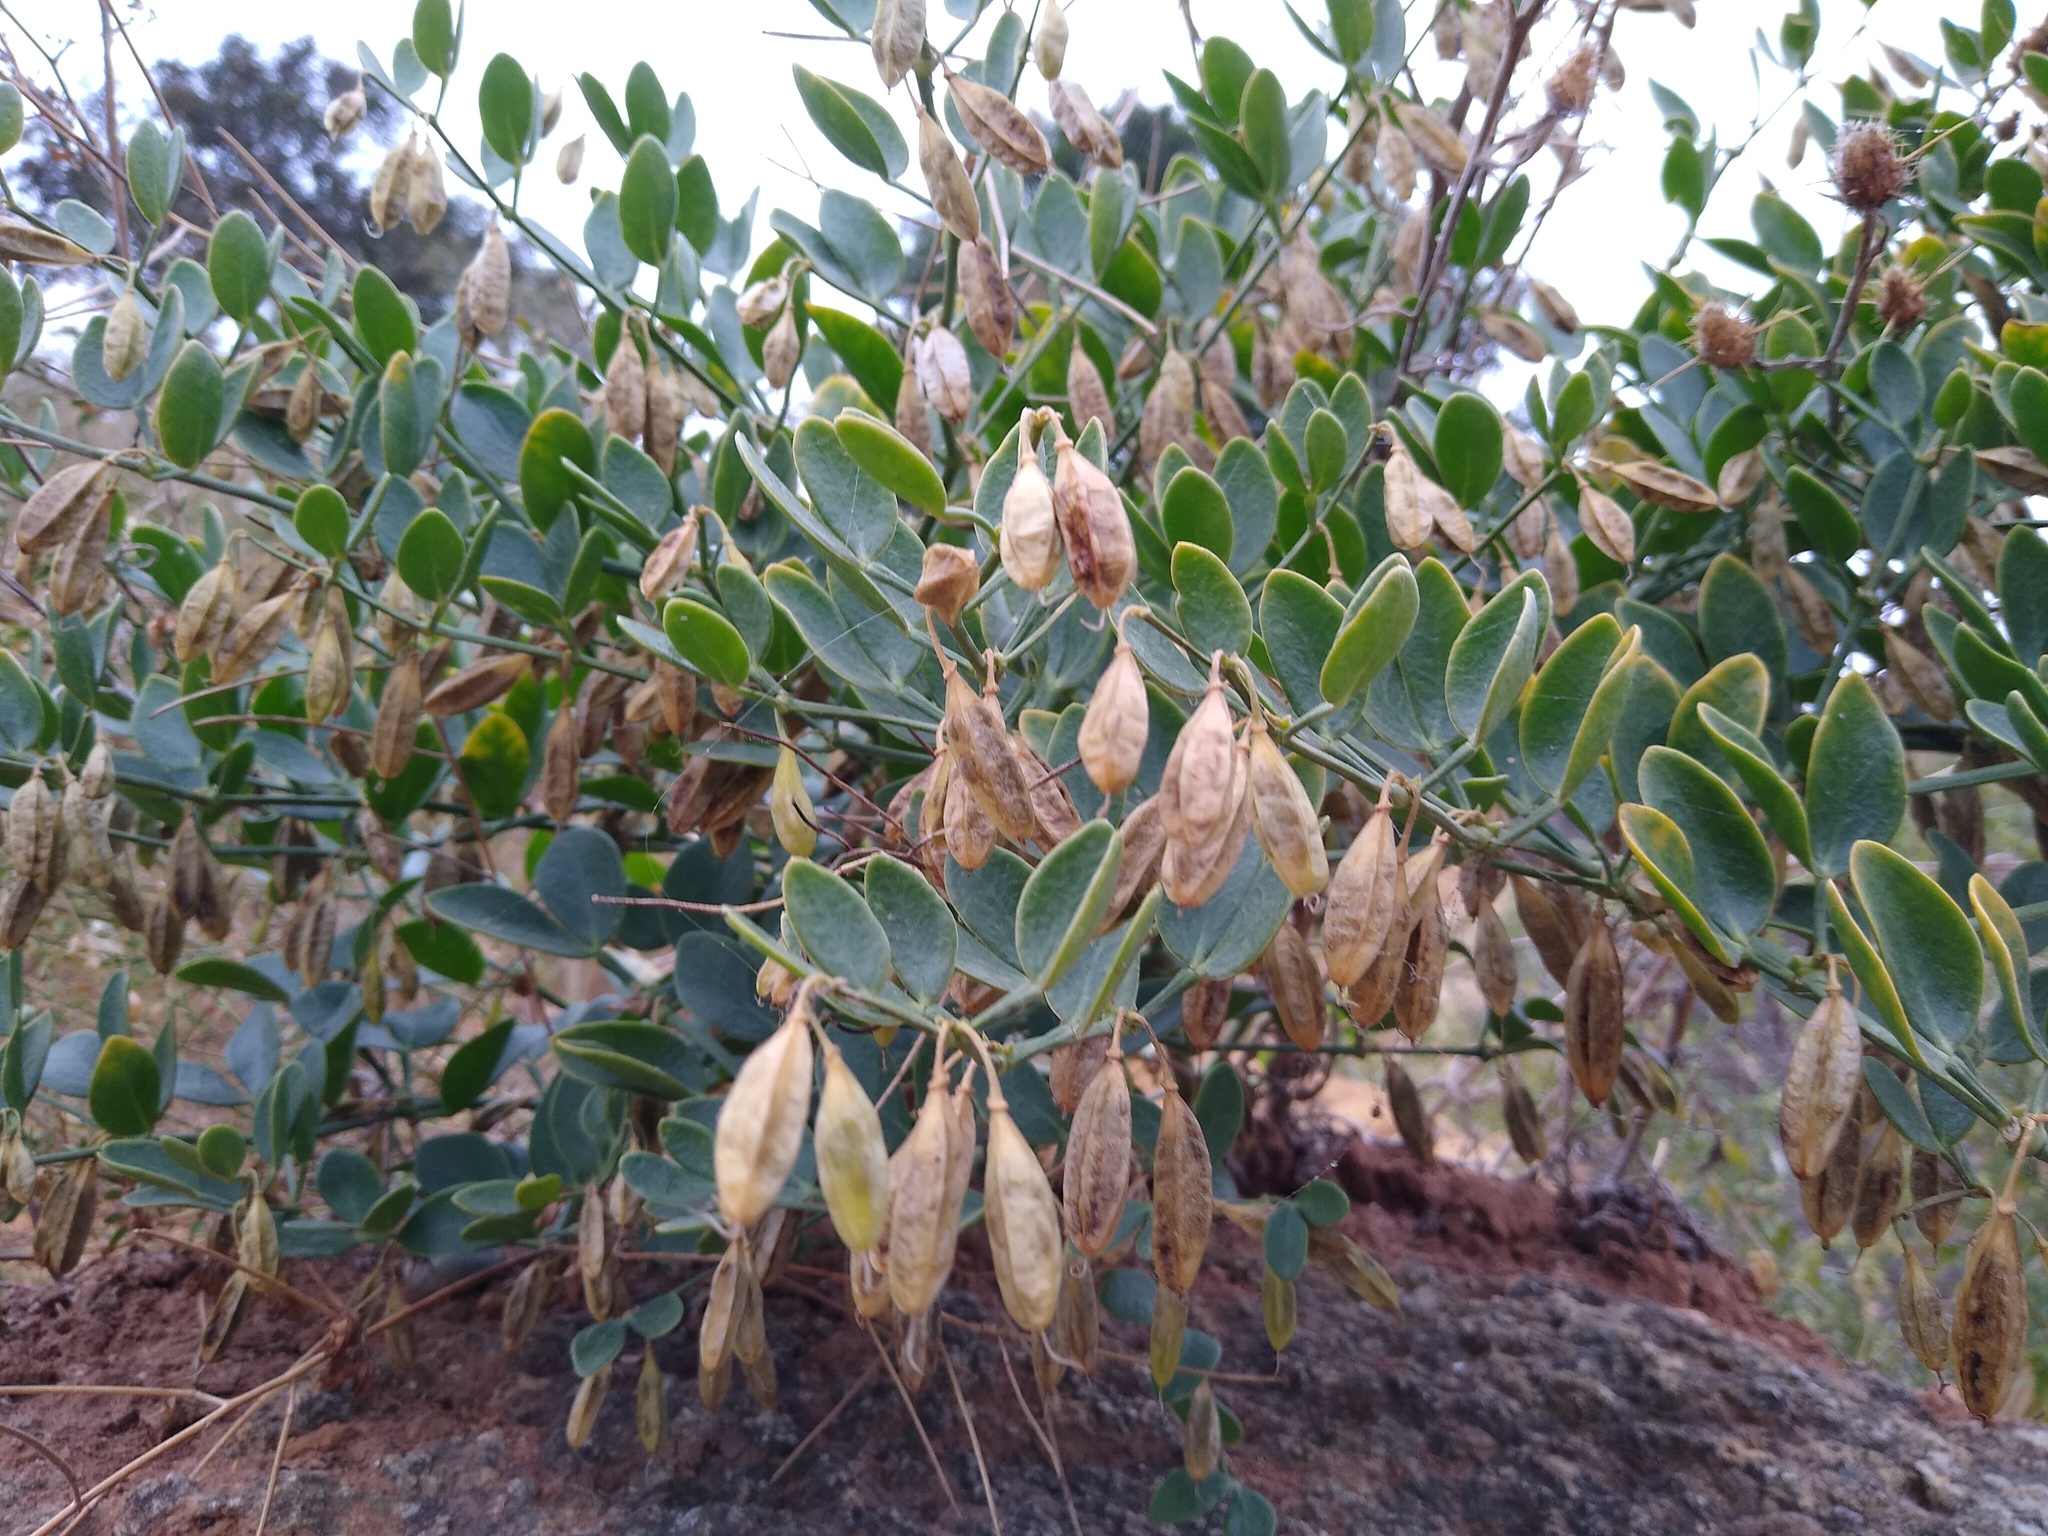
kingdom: Plantae
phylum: Tracheophyta
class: Magnoliopsida
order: Zygophyllales
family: Zygophyllaceae
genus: Zygophyllum
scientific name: Zygophyllum fabago
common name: Syrian beancaper
